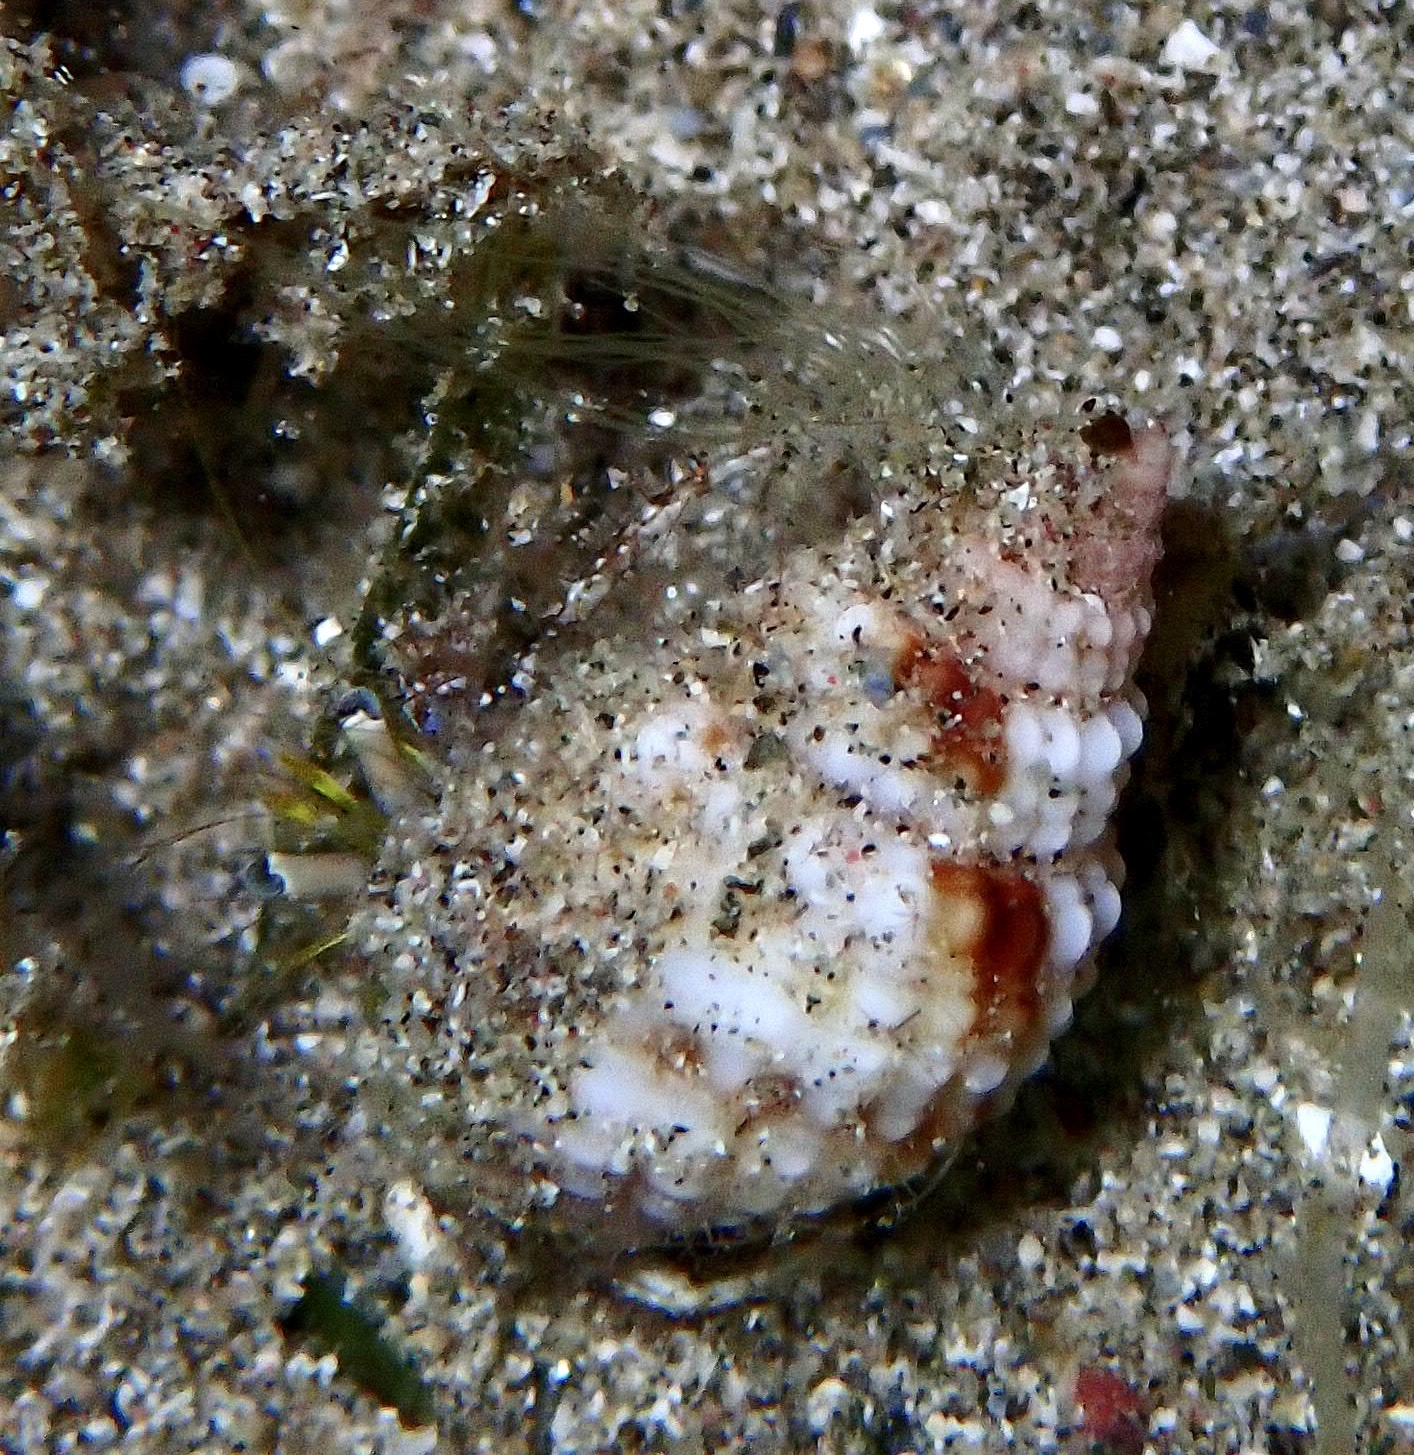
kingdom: Animalia
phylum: Arthropoda
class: Malacostraca
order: Decapoda
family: Diogenidae
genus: Dardanus
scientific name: Dardanus lagopodes
